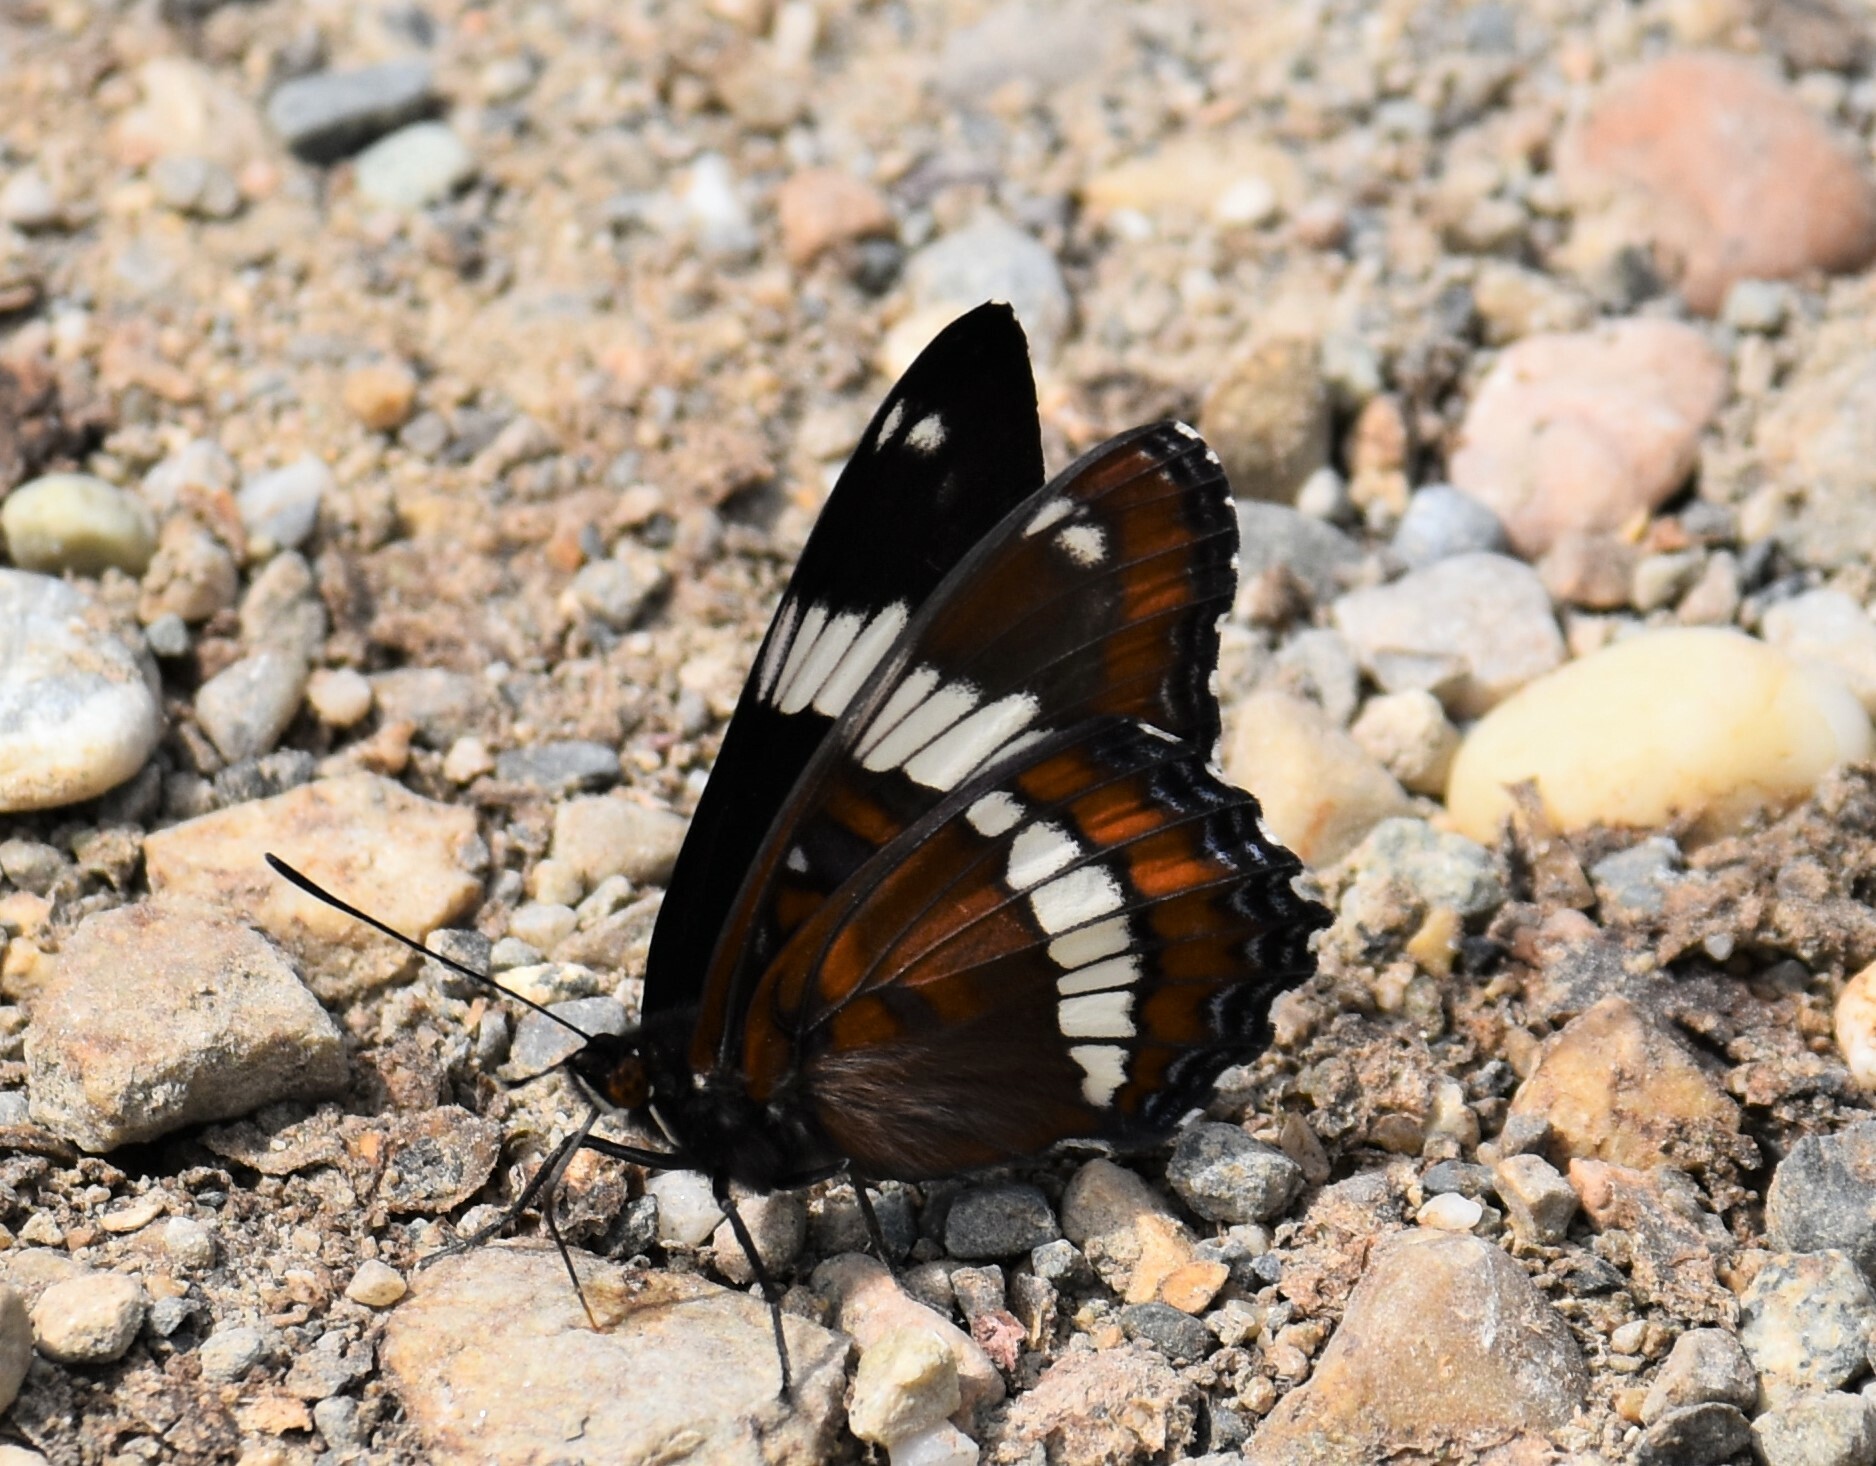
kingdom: Animalia
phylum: Arthropoda
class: Insecta
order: Lepidoptera
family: Nymphalidae
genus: Limenitis
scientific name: Limenitis arthemis
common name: Red-spotted admiral
